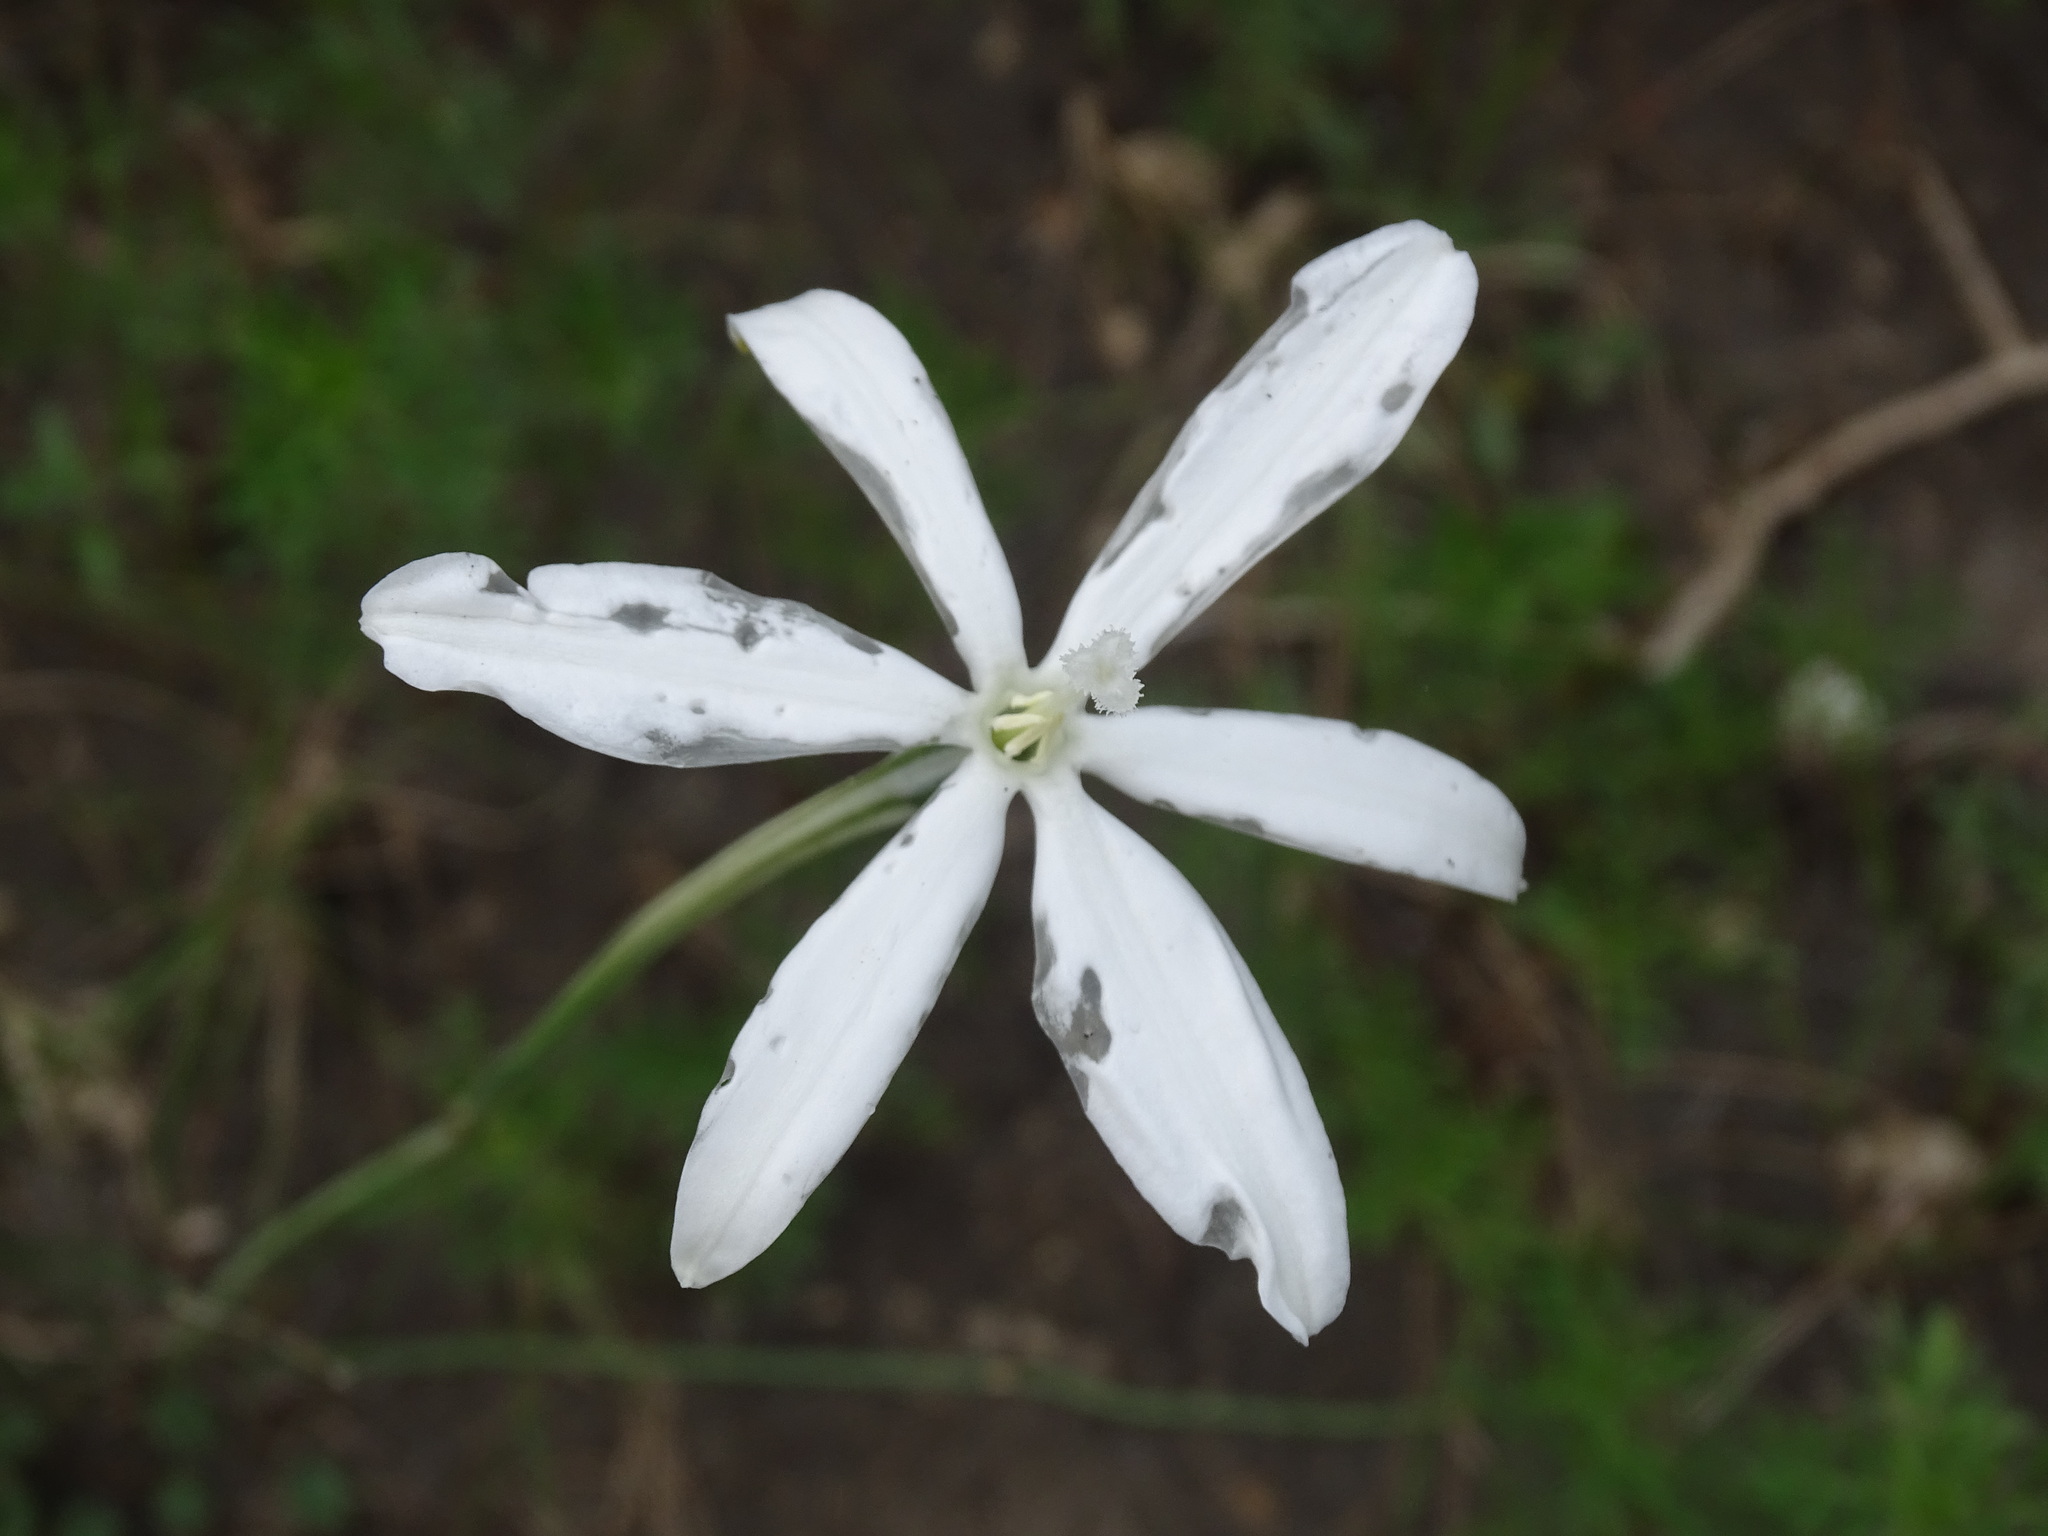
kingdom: Plantae
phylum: Tracheophyta
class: Liliopsida
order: Asparagales
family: Asparagaceae
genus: Milla
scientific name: Milla biflora
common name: Mexican-star
